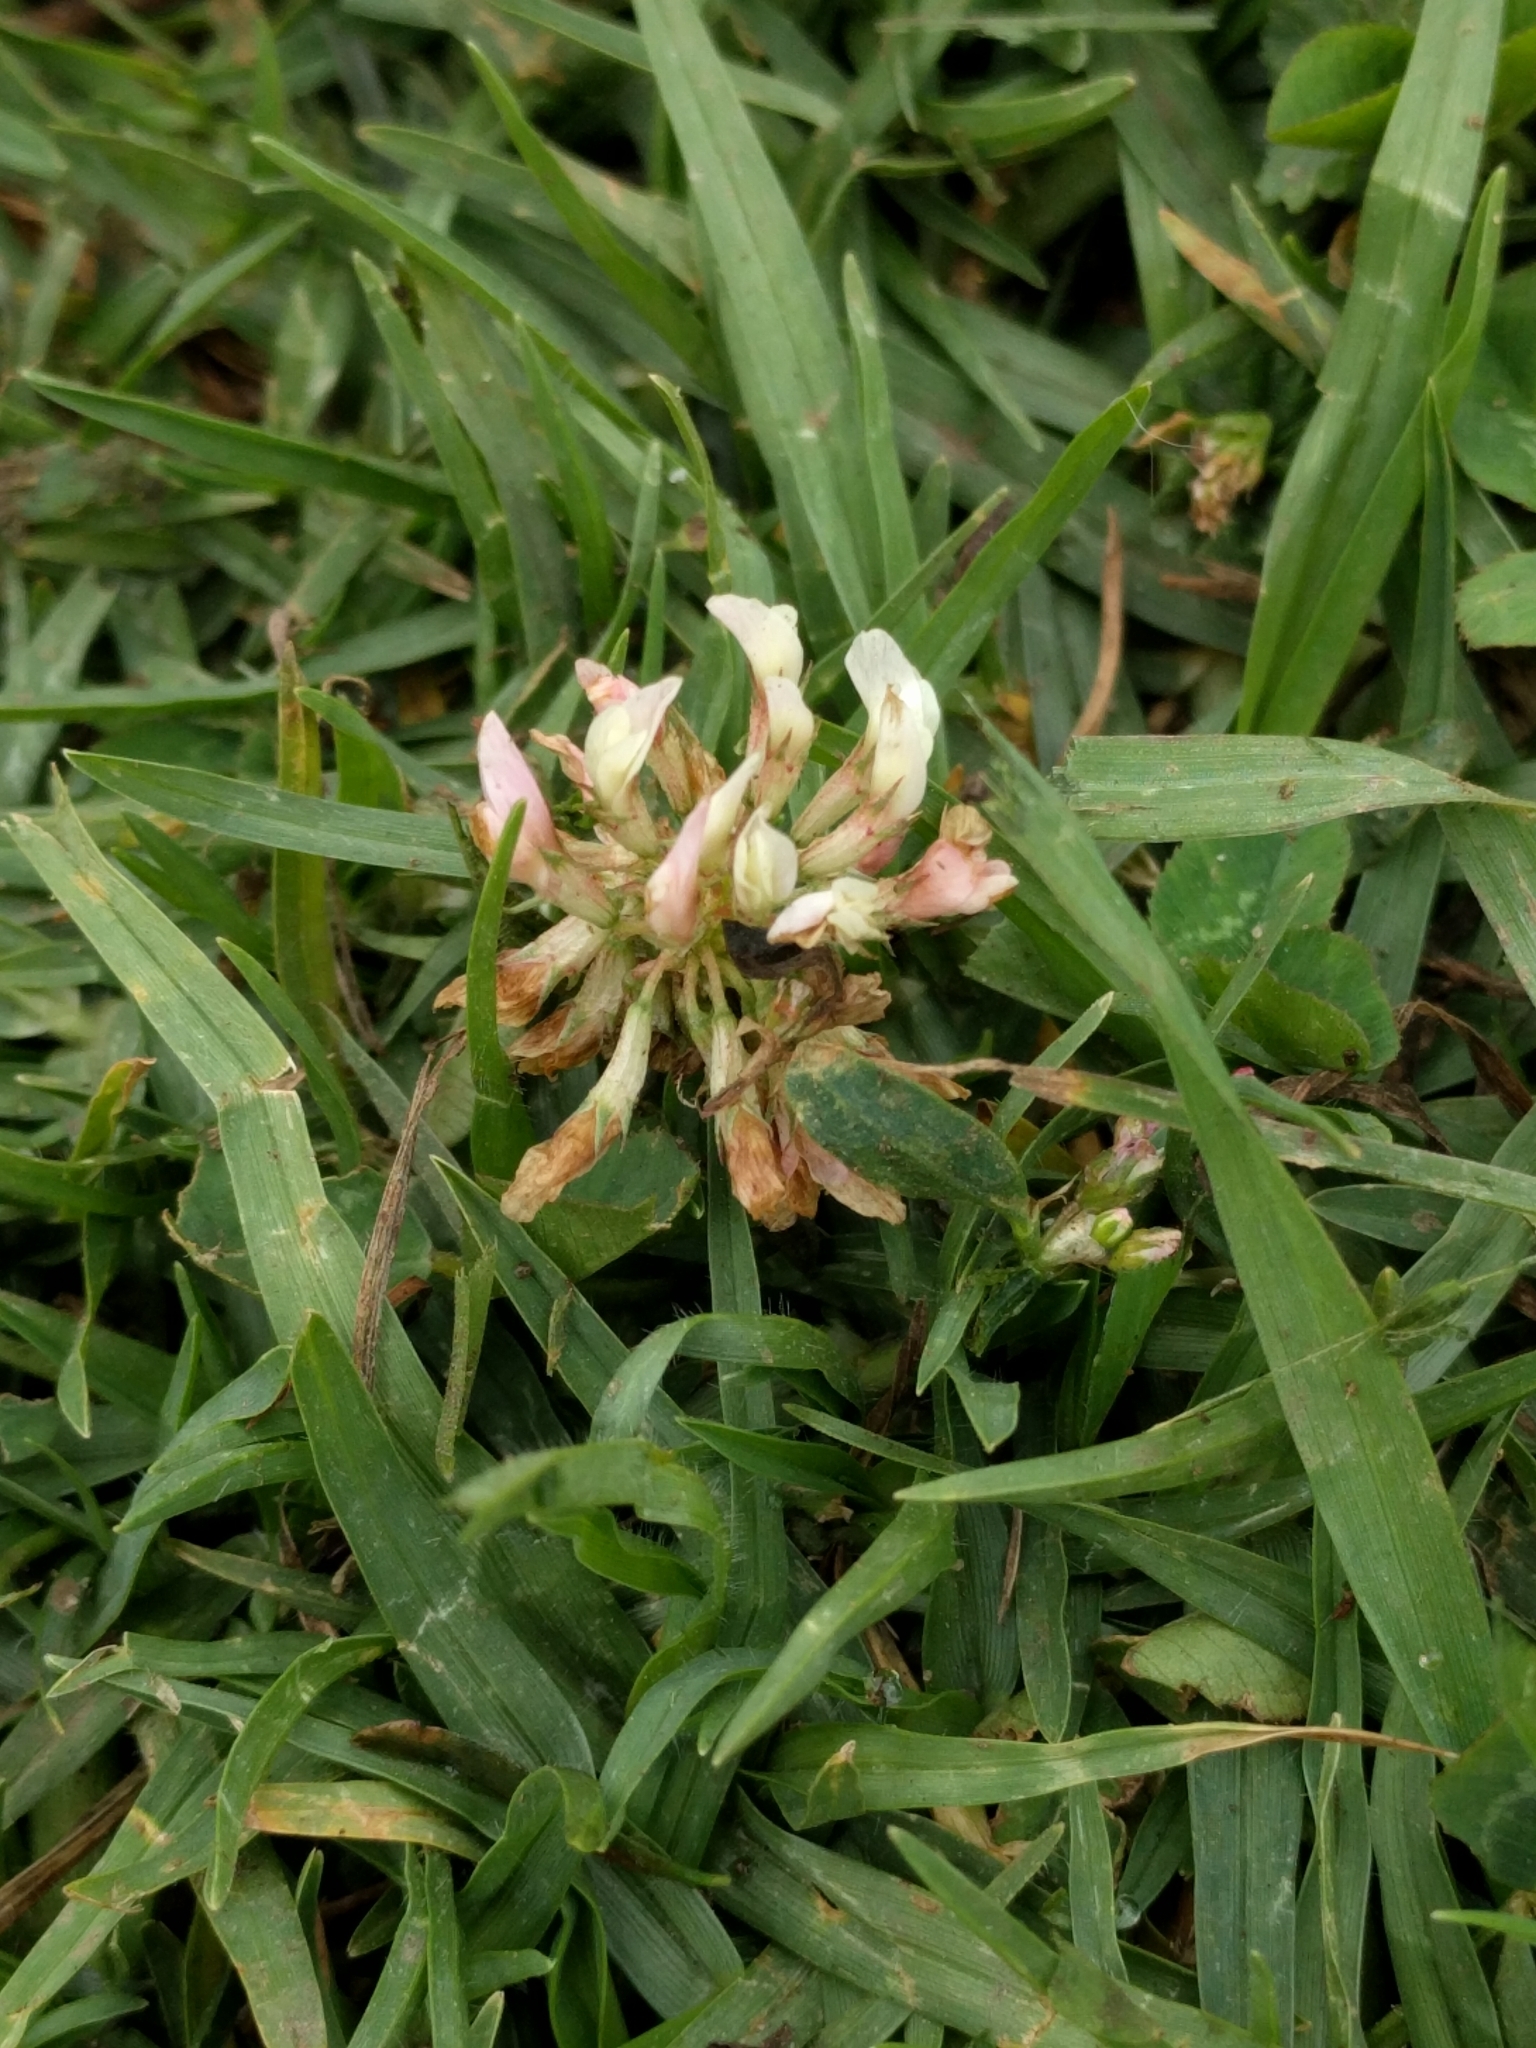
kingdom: Plantae
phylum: Tracheophyta
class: Magnoliopsida
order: Fabales
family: Fabaceae
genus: Trifolium
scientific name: Trifolium repens
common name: White clover
